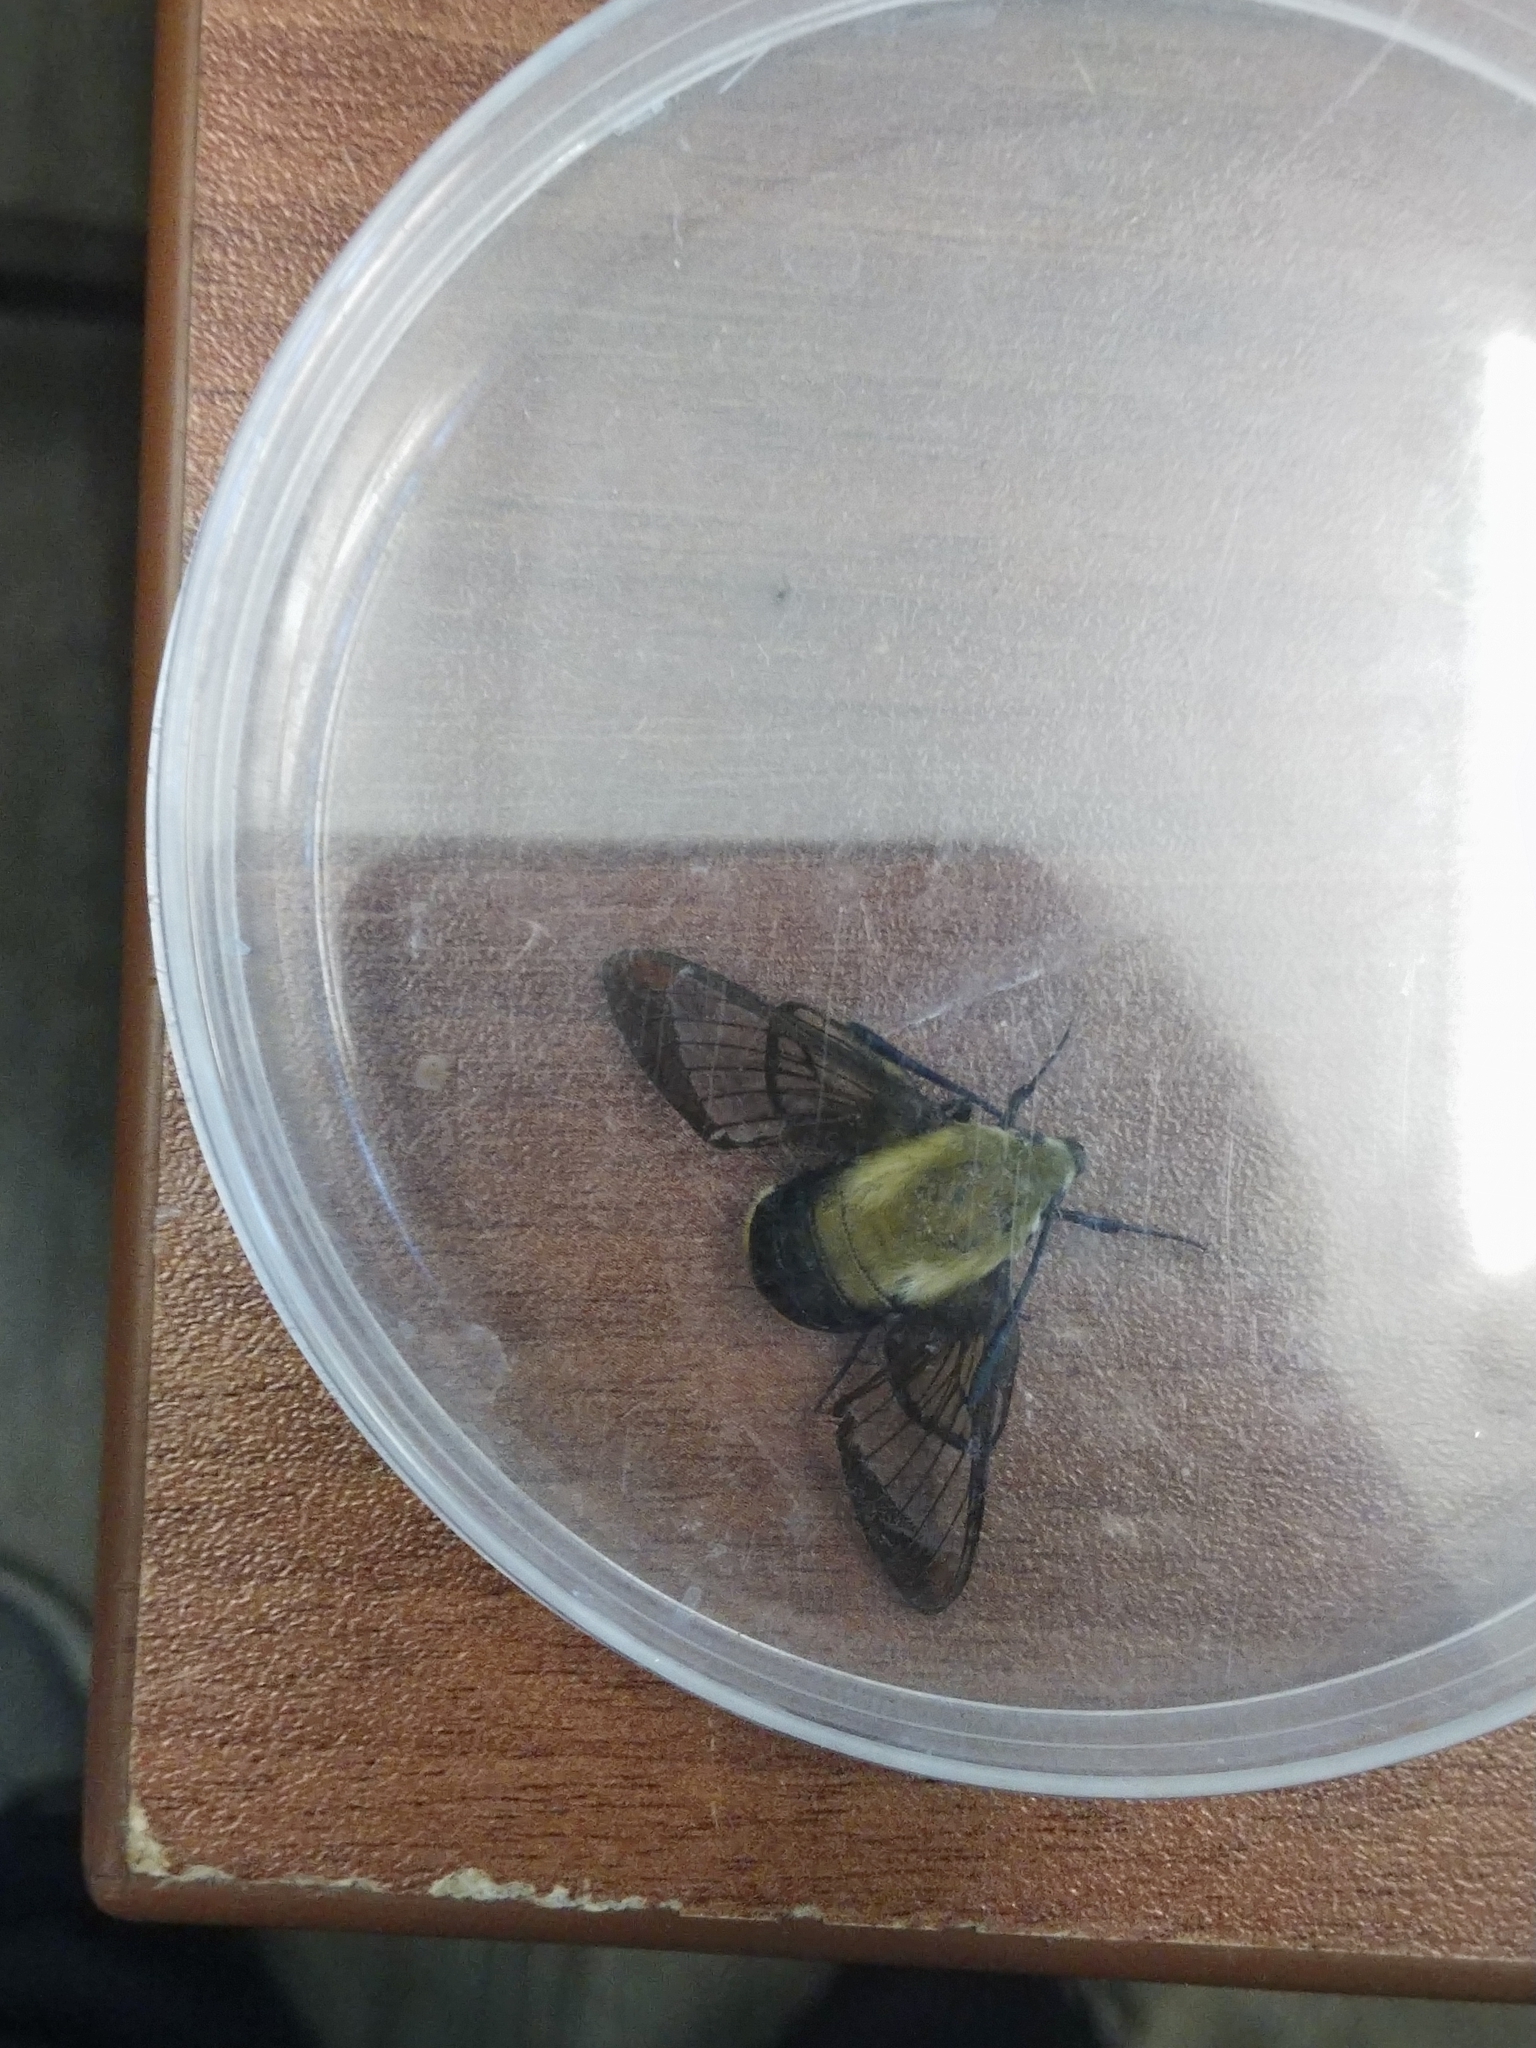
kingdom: Animalia
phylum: Arthropoda
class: Insecta
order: Lepidoptera
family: Sphingidae
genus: Hemaris
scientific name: Hemaris diffinis
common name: Bumblebee moth
